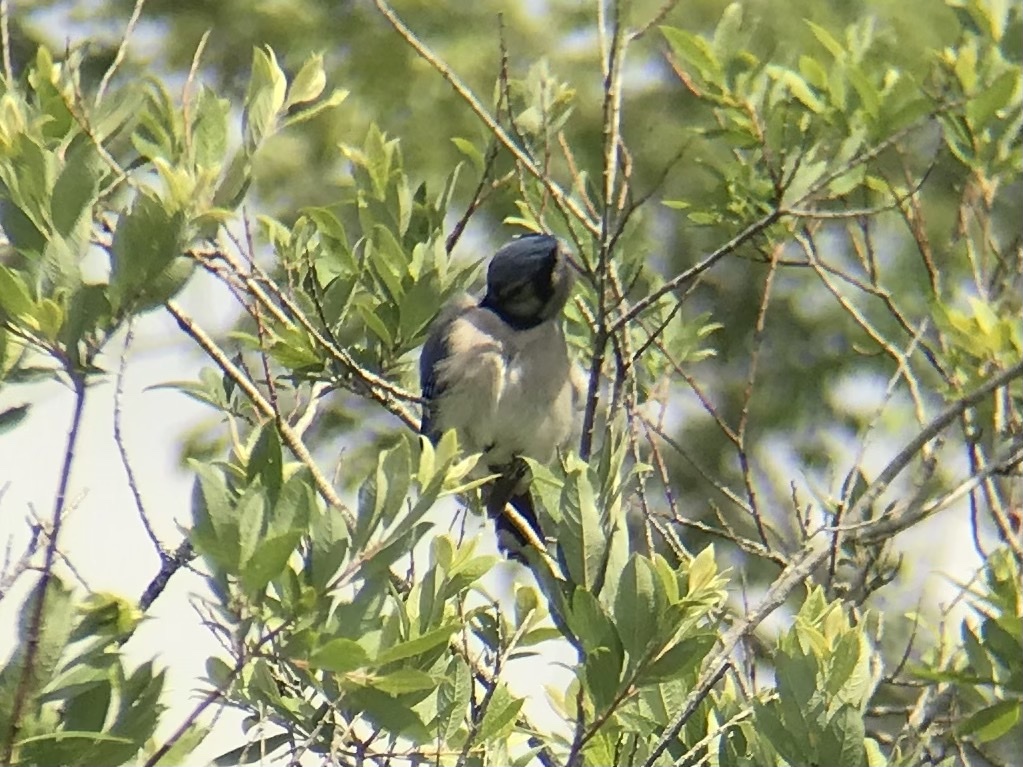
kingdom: Animalia
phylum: Chordata
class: Aves
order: Passeriformes
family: Corvidae
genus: Cyanocitta
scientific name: Cyanocitta cristata
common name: Blue jay
